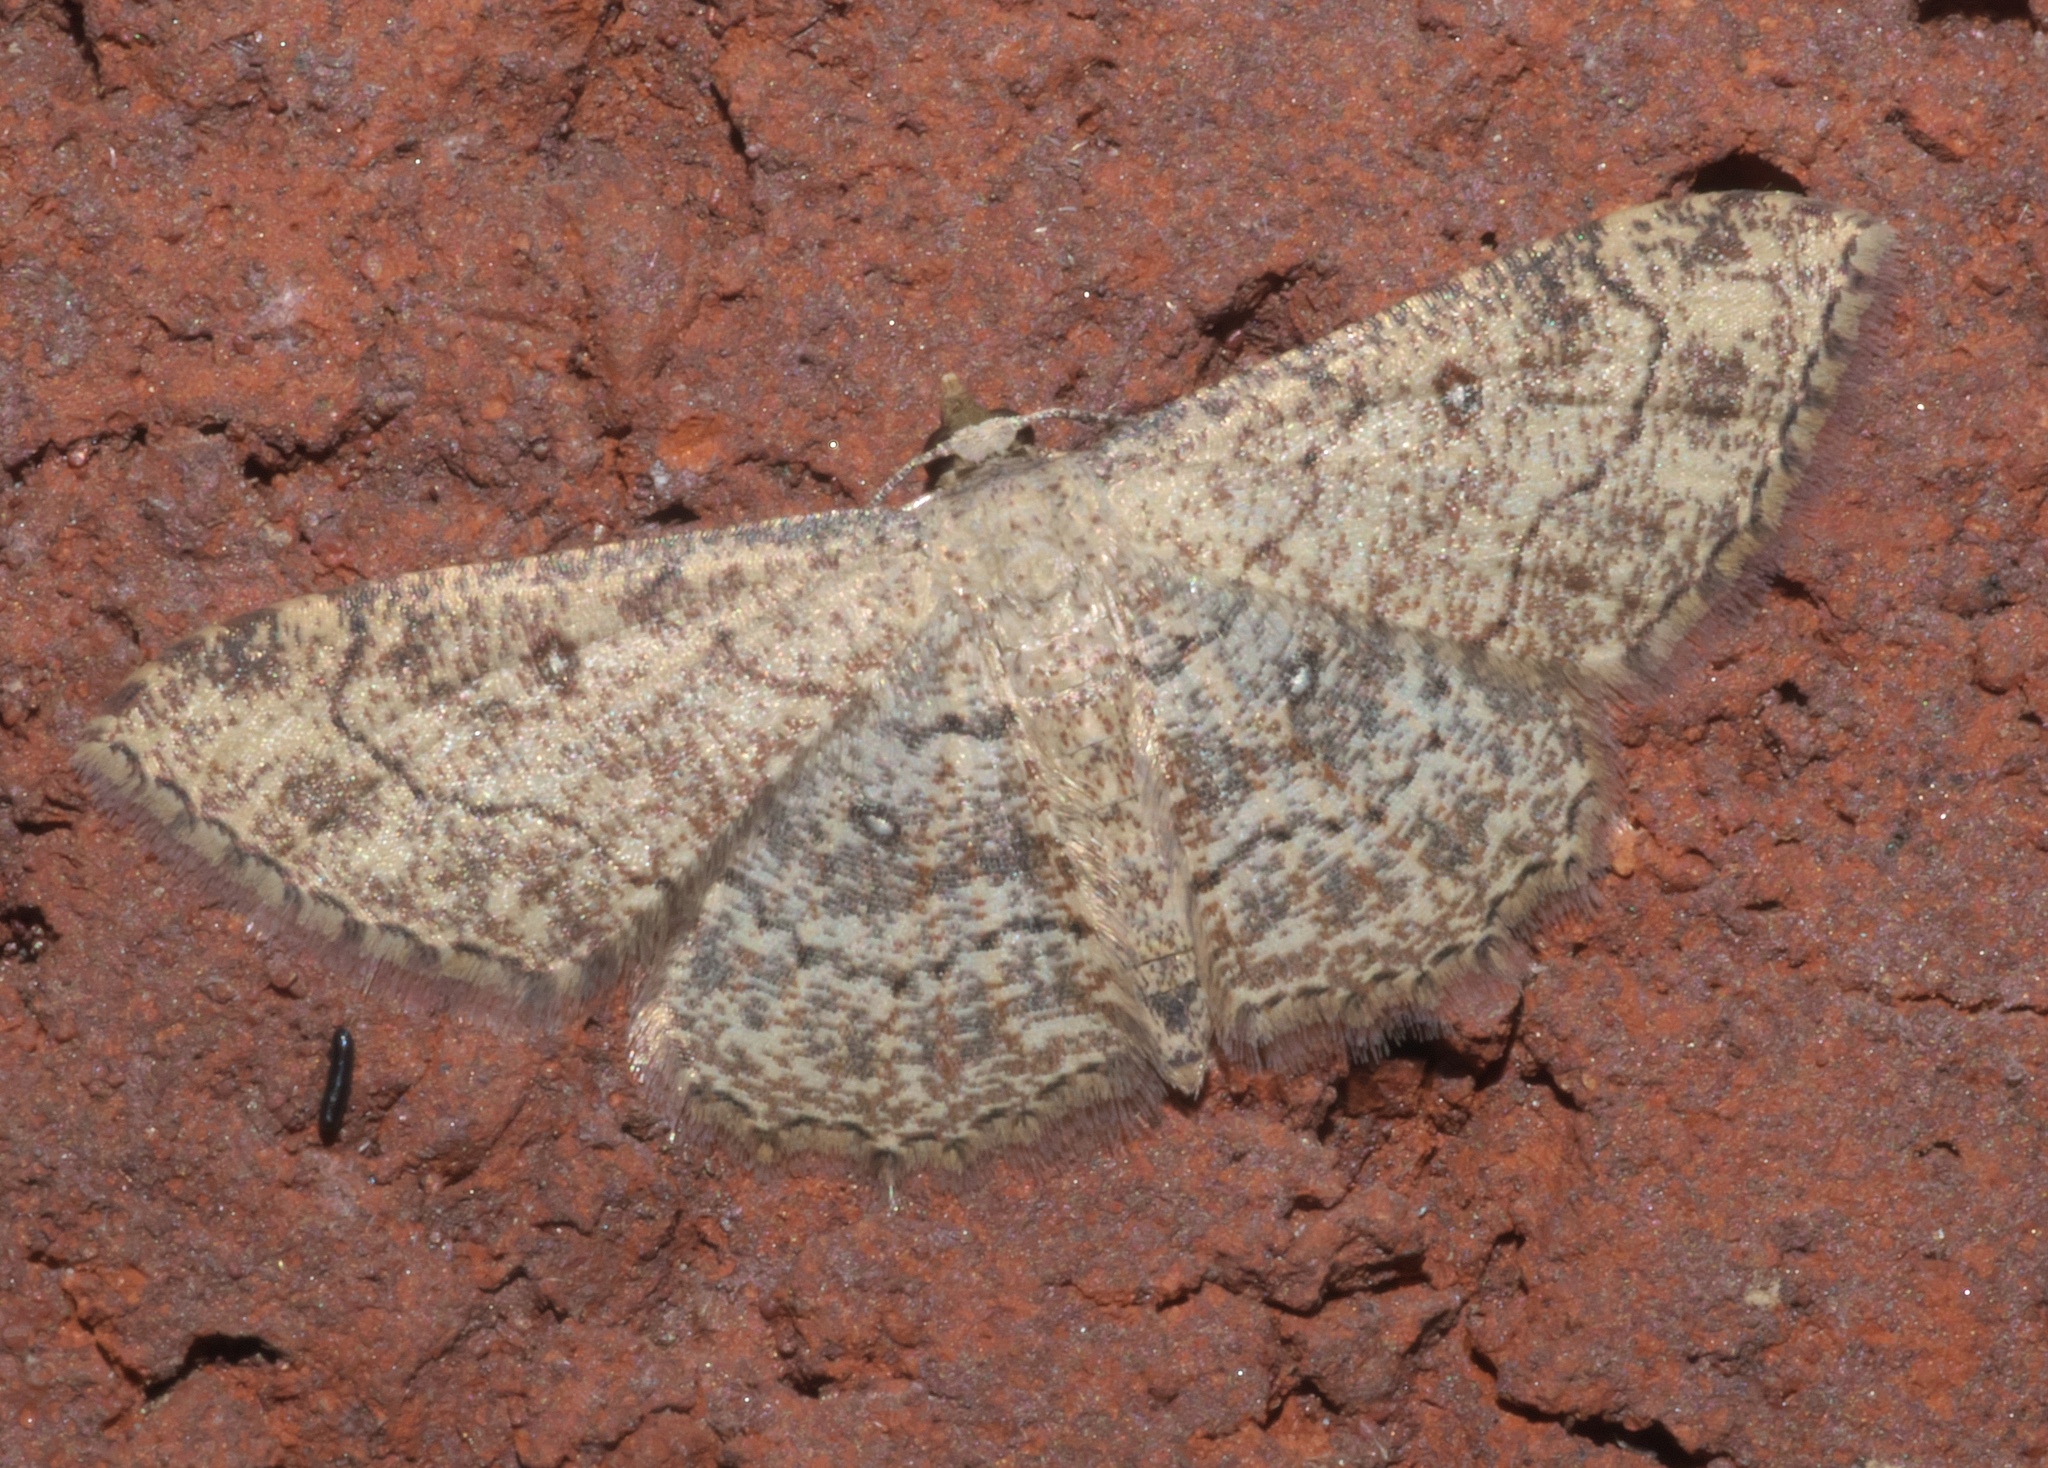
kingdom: Animalia
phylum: Arthropoda
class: Insecta
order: Lepidoptera
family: Geometridae
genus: Cyclophora
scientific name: Cyclophora nanaria
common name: Cankerworm
